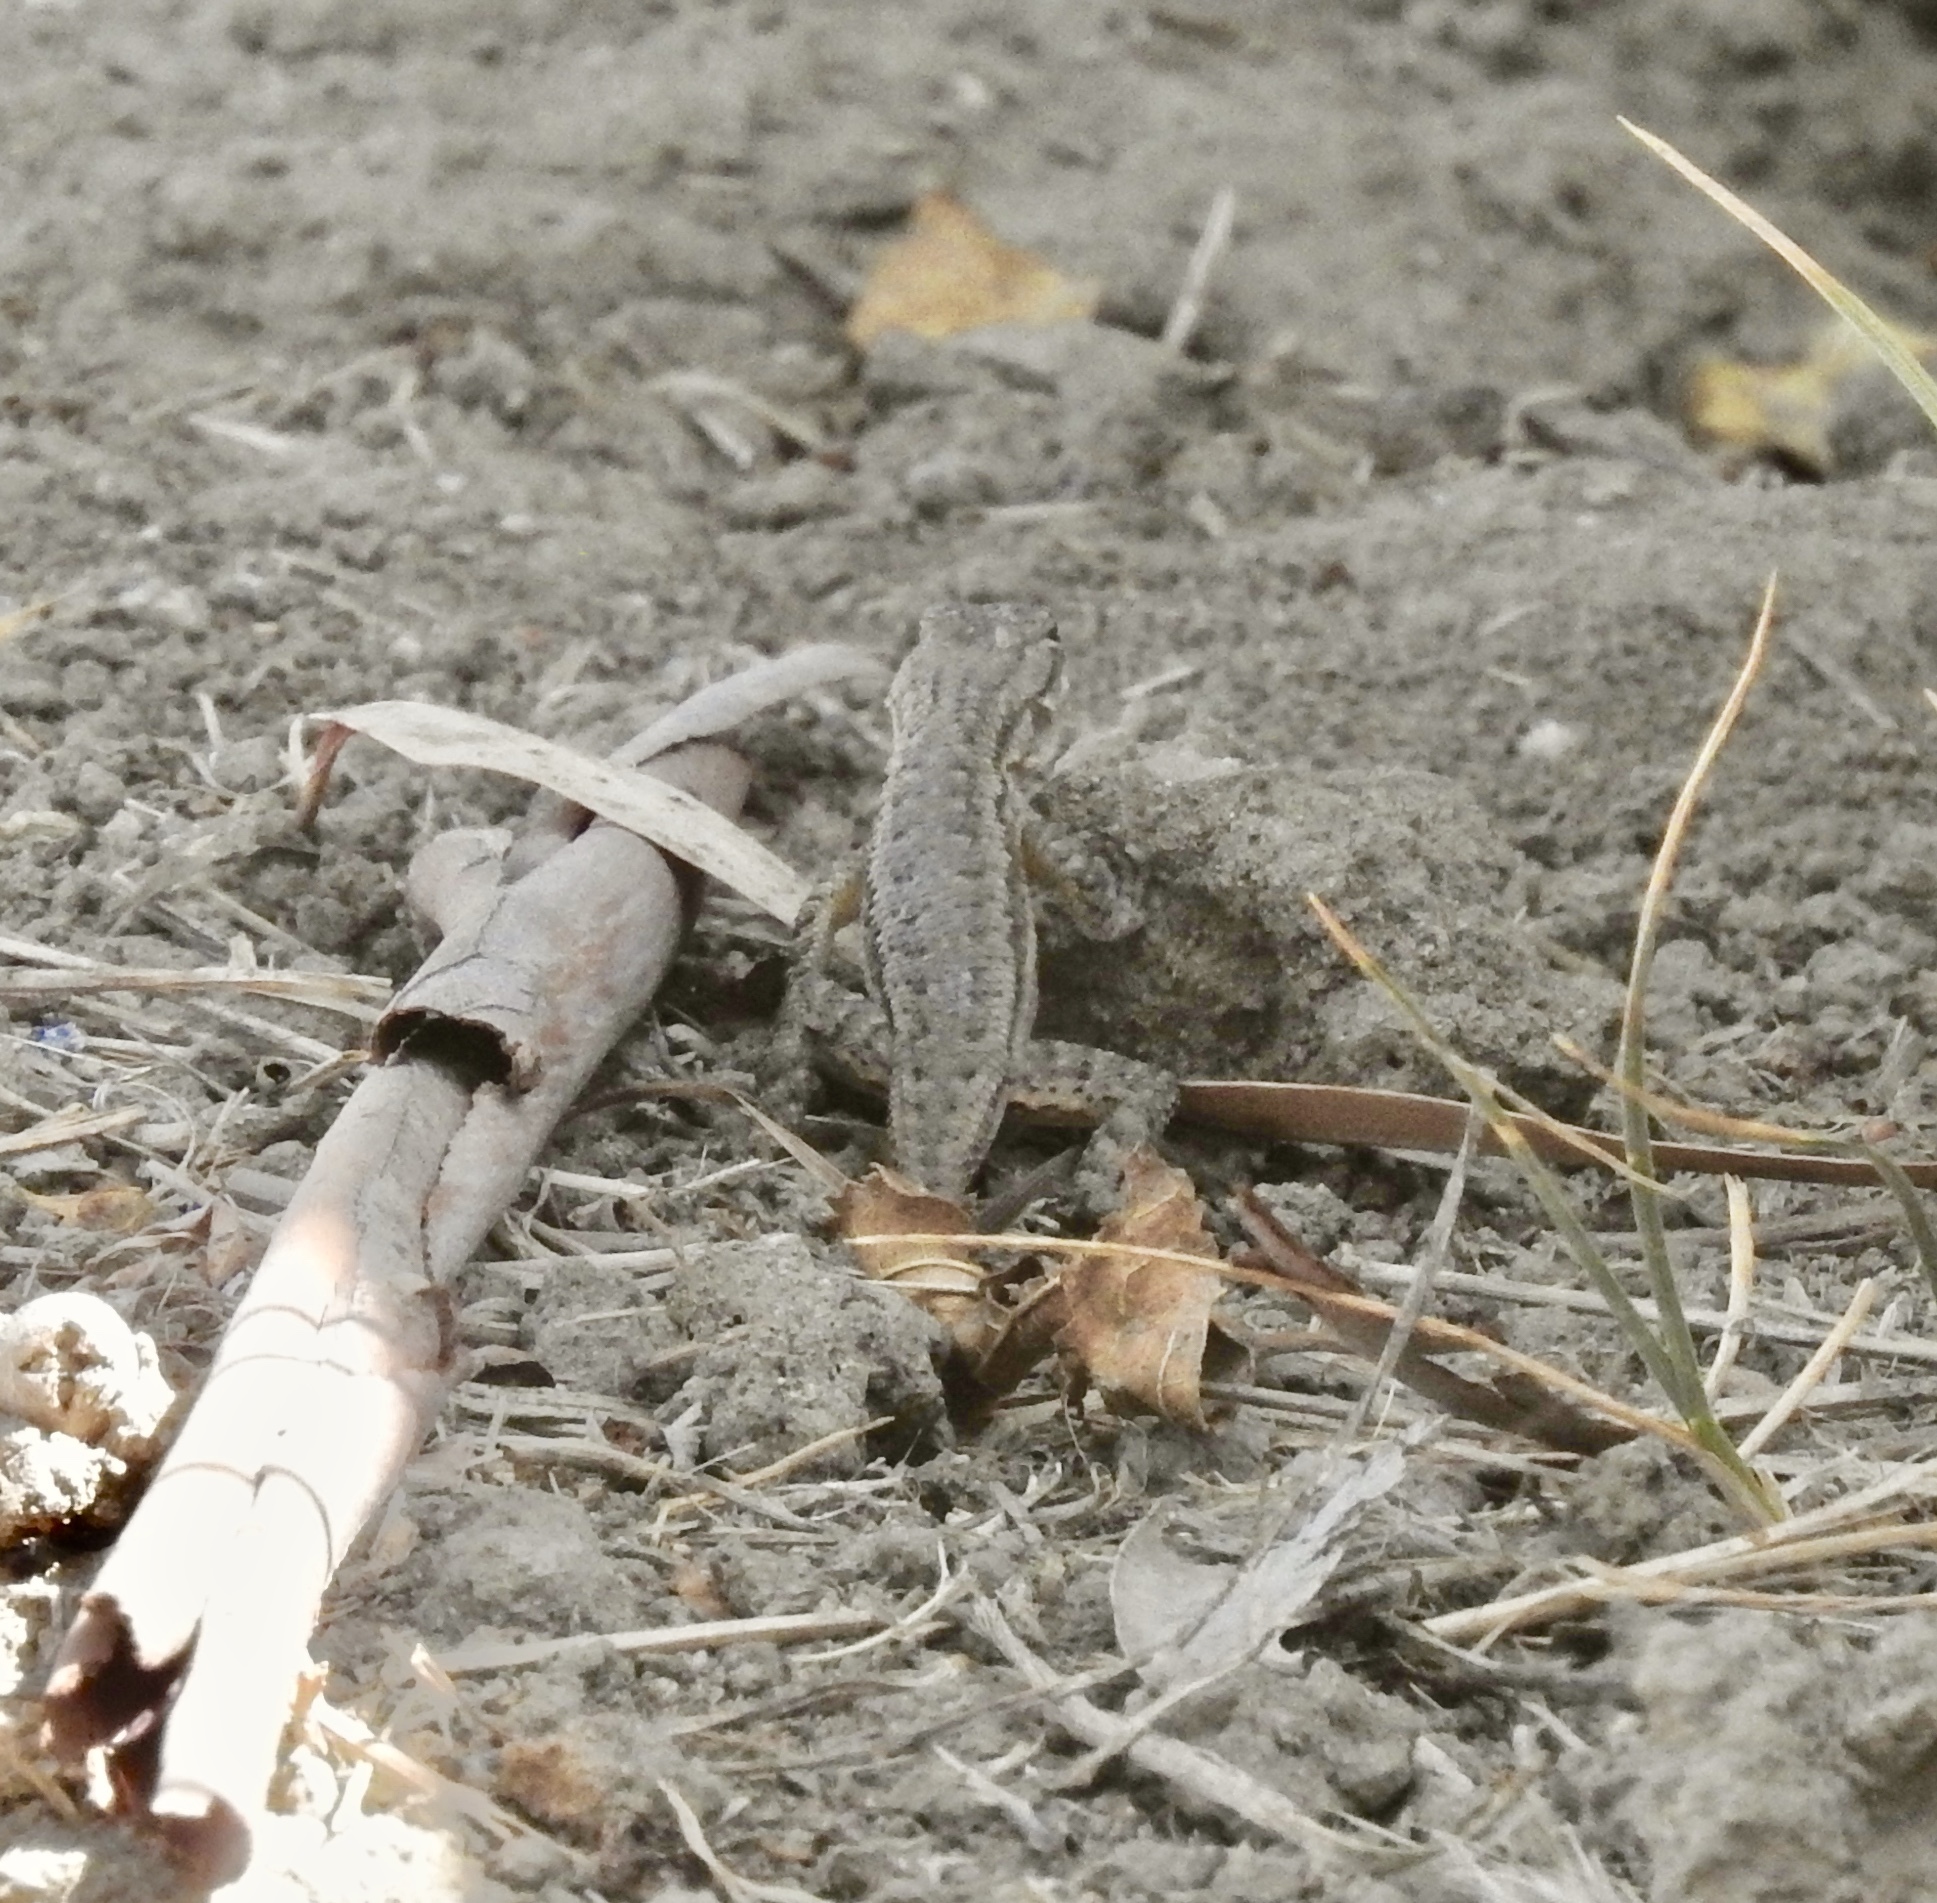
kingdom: Animalia
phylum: Chordata
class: Squamata
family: Phrynosomatidae
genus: Sceloporus
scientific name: Sceloporus occidentalis
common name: Western fence lizard
